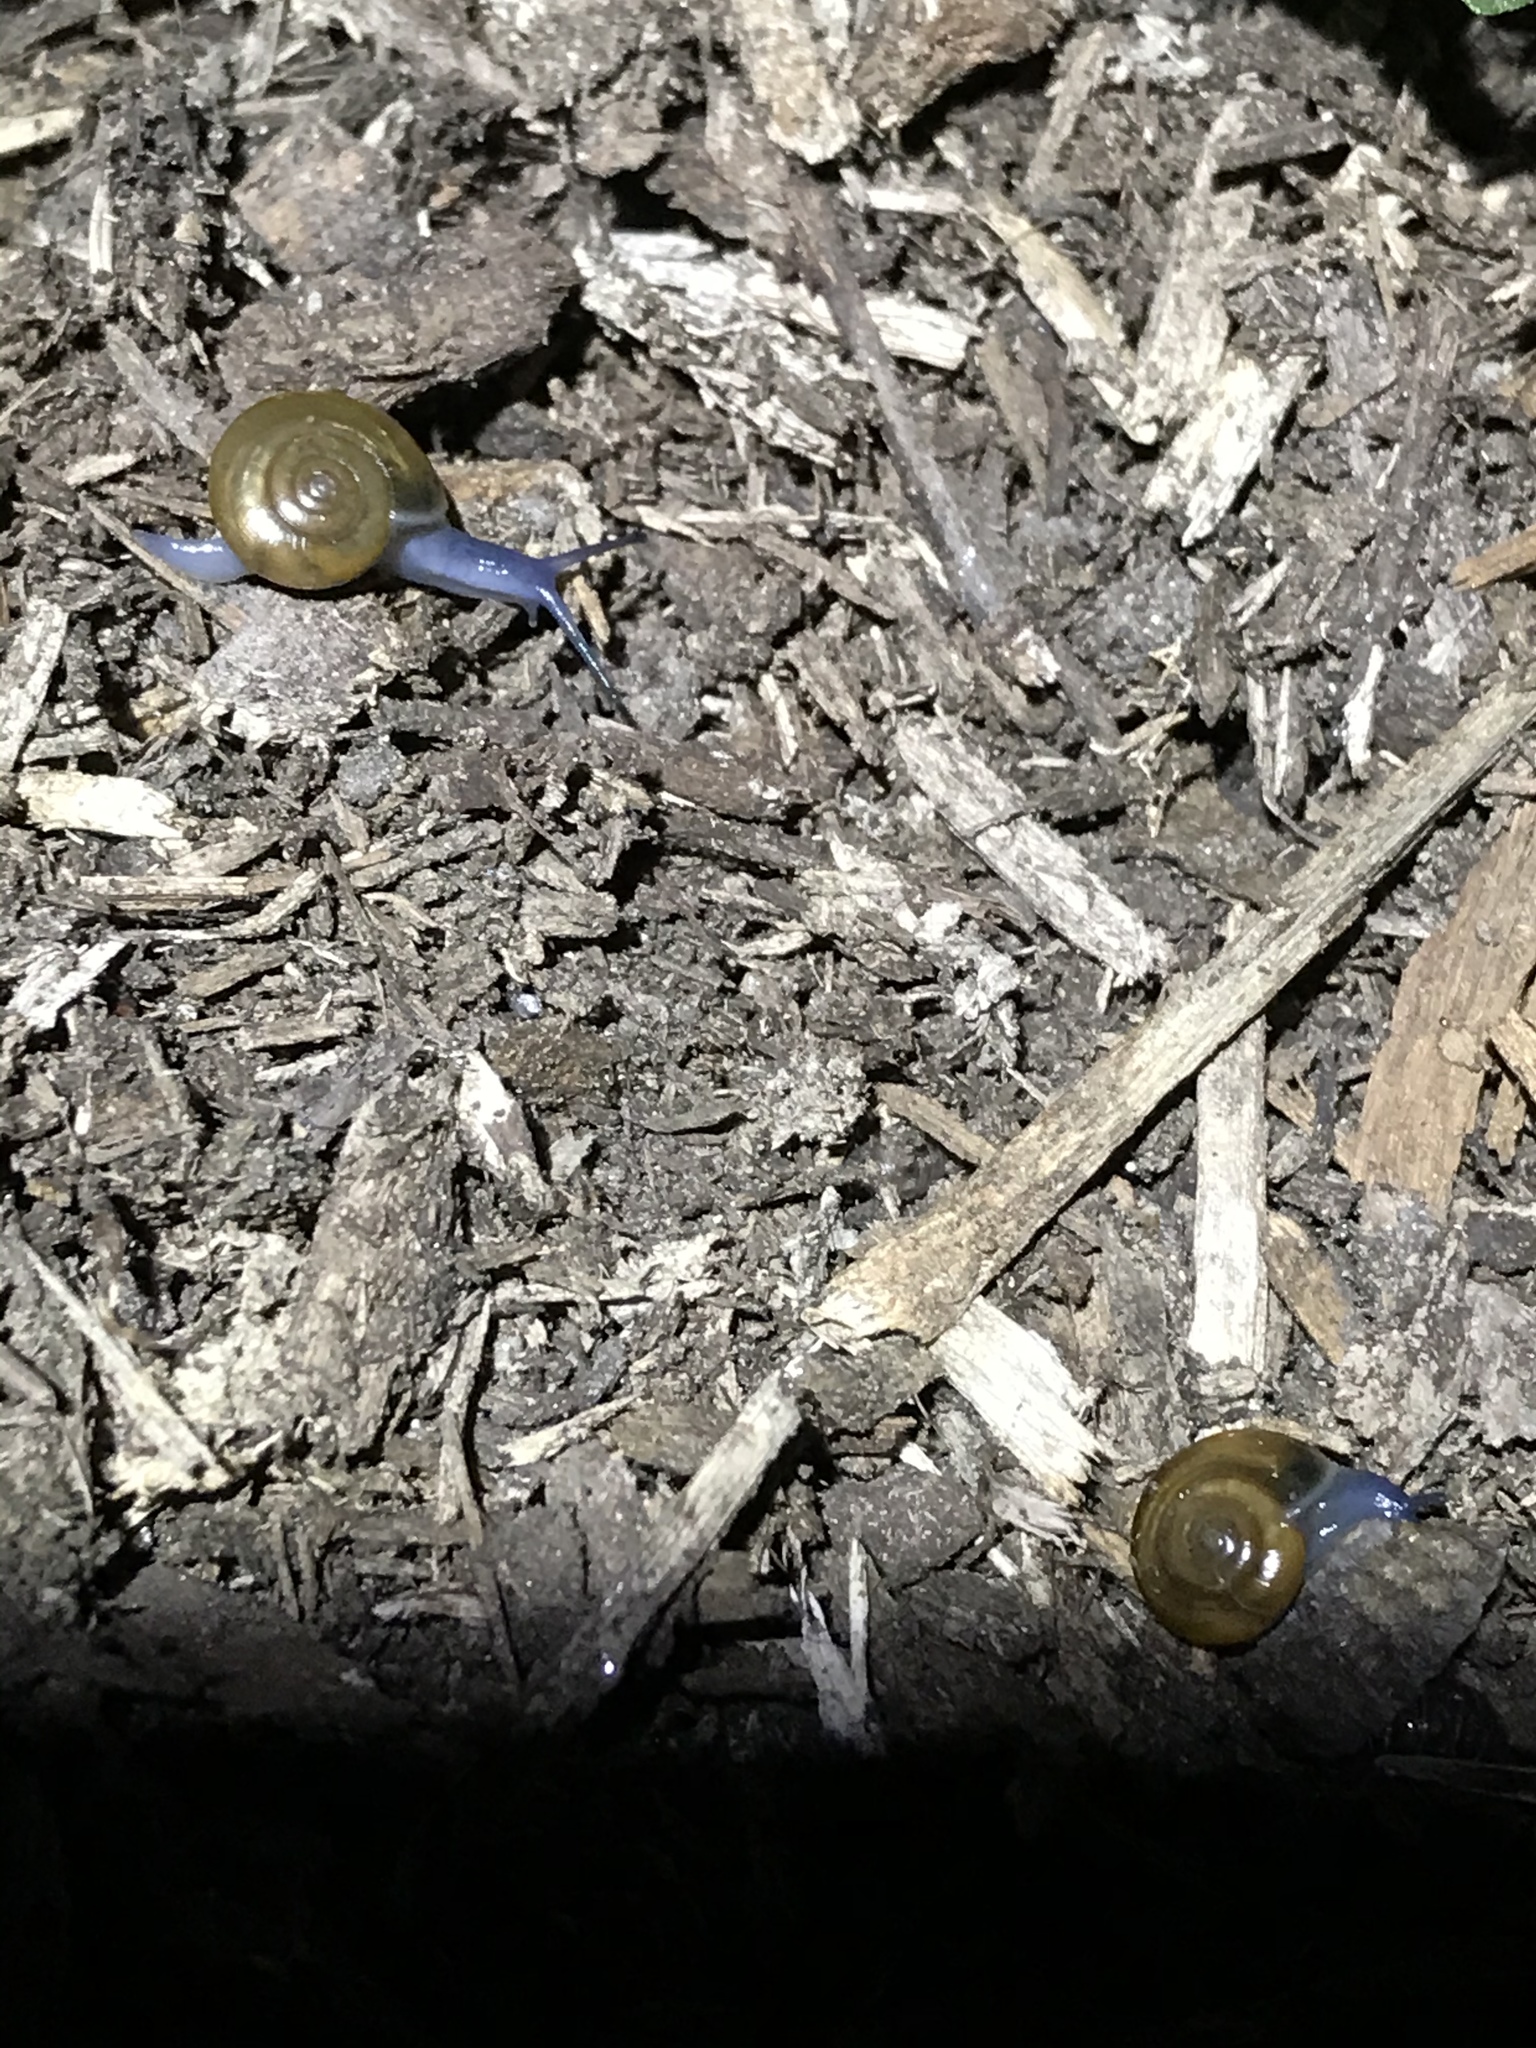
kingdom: Animalia
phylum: Mollusca
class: Gastropoda
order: Stylommatophora
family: Oxychilidae
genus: Oxychilus
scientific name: Oxychilus
